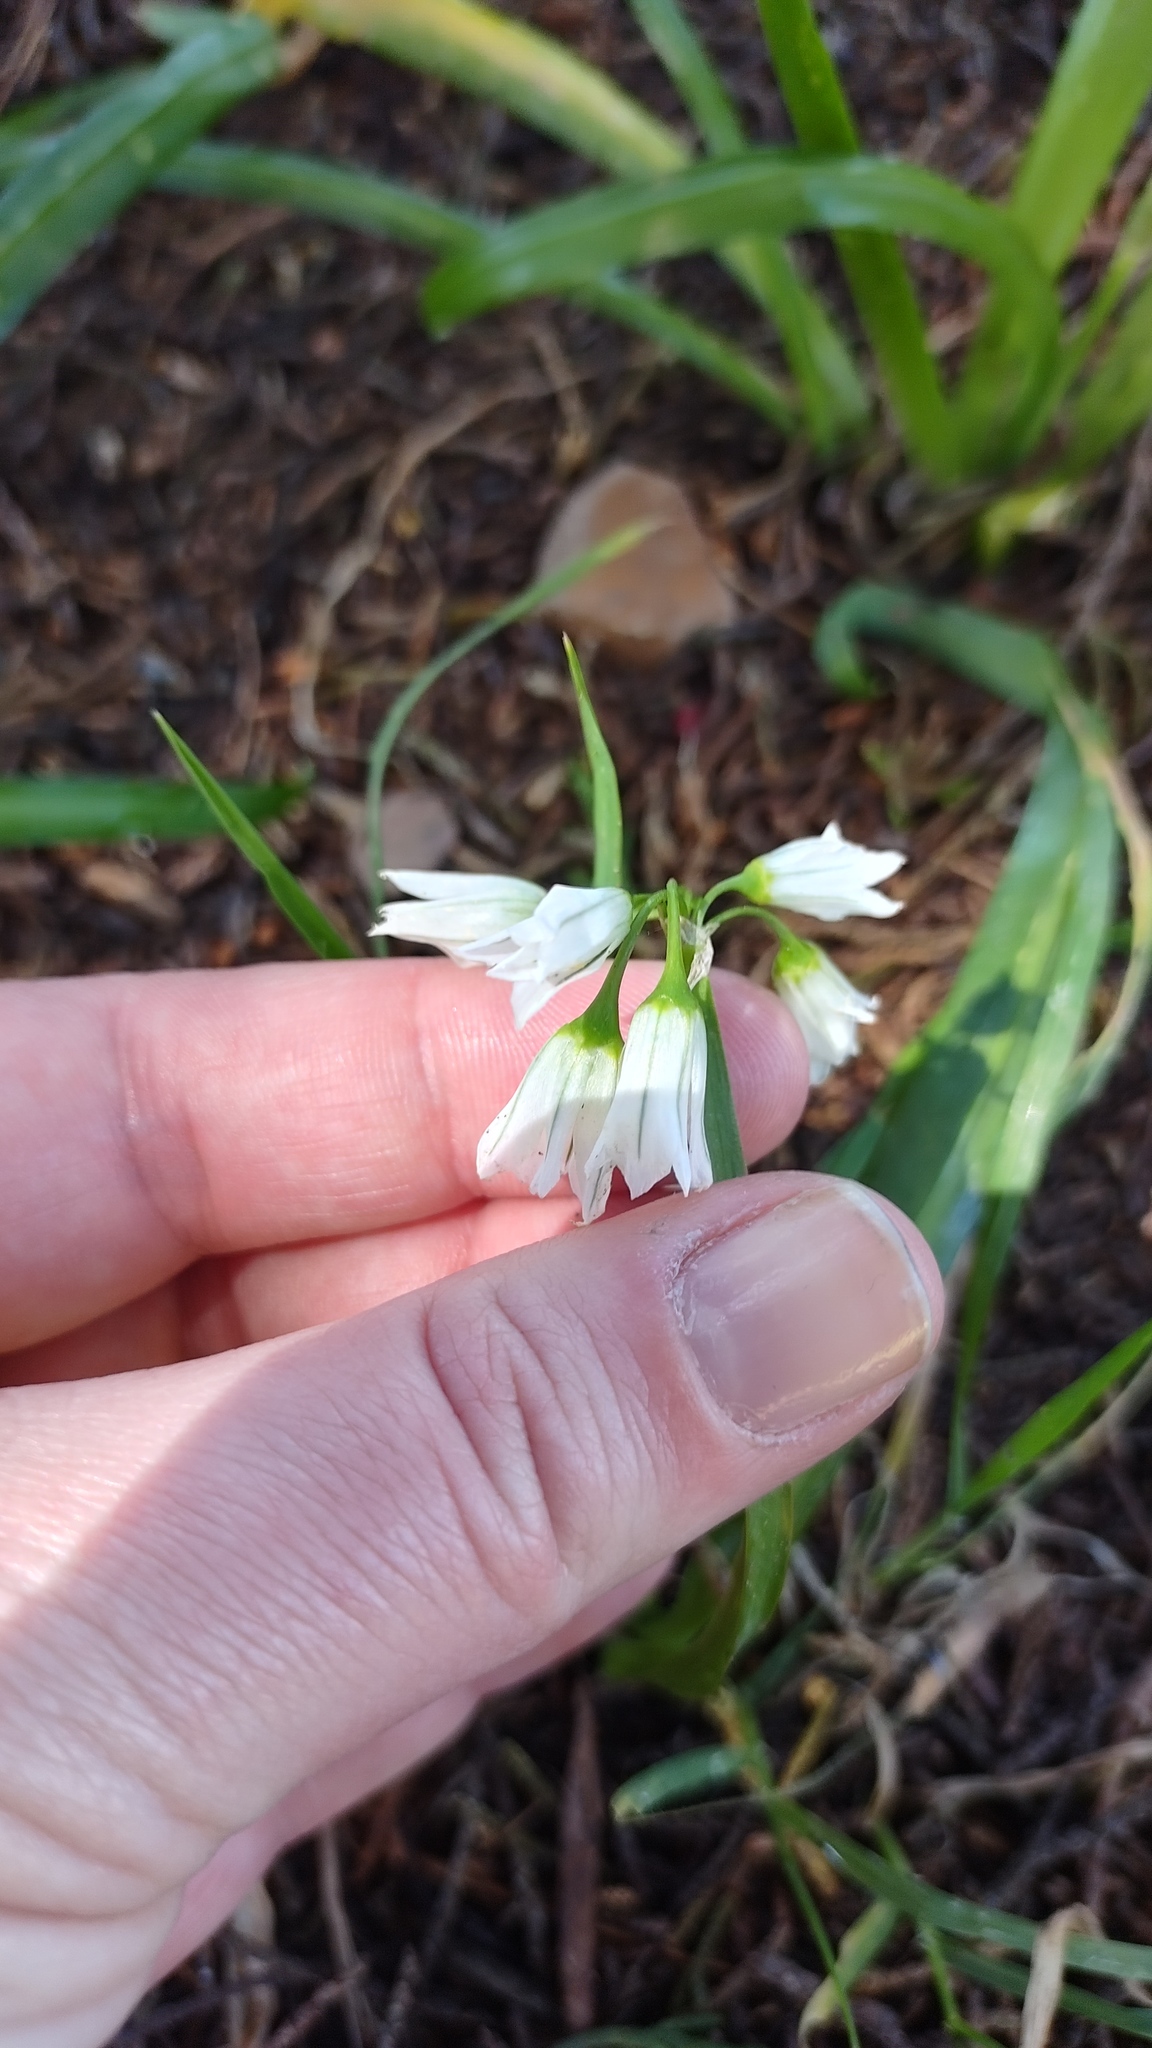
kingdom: Plantae
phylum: Tracheophyta
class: Liliopsida
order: Asparagales
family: Amaryllidaceae
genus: Allium
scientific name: Allium triquetrum
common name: Three-cornered garlic
